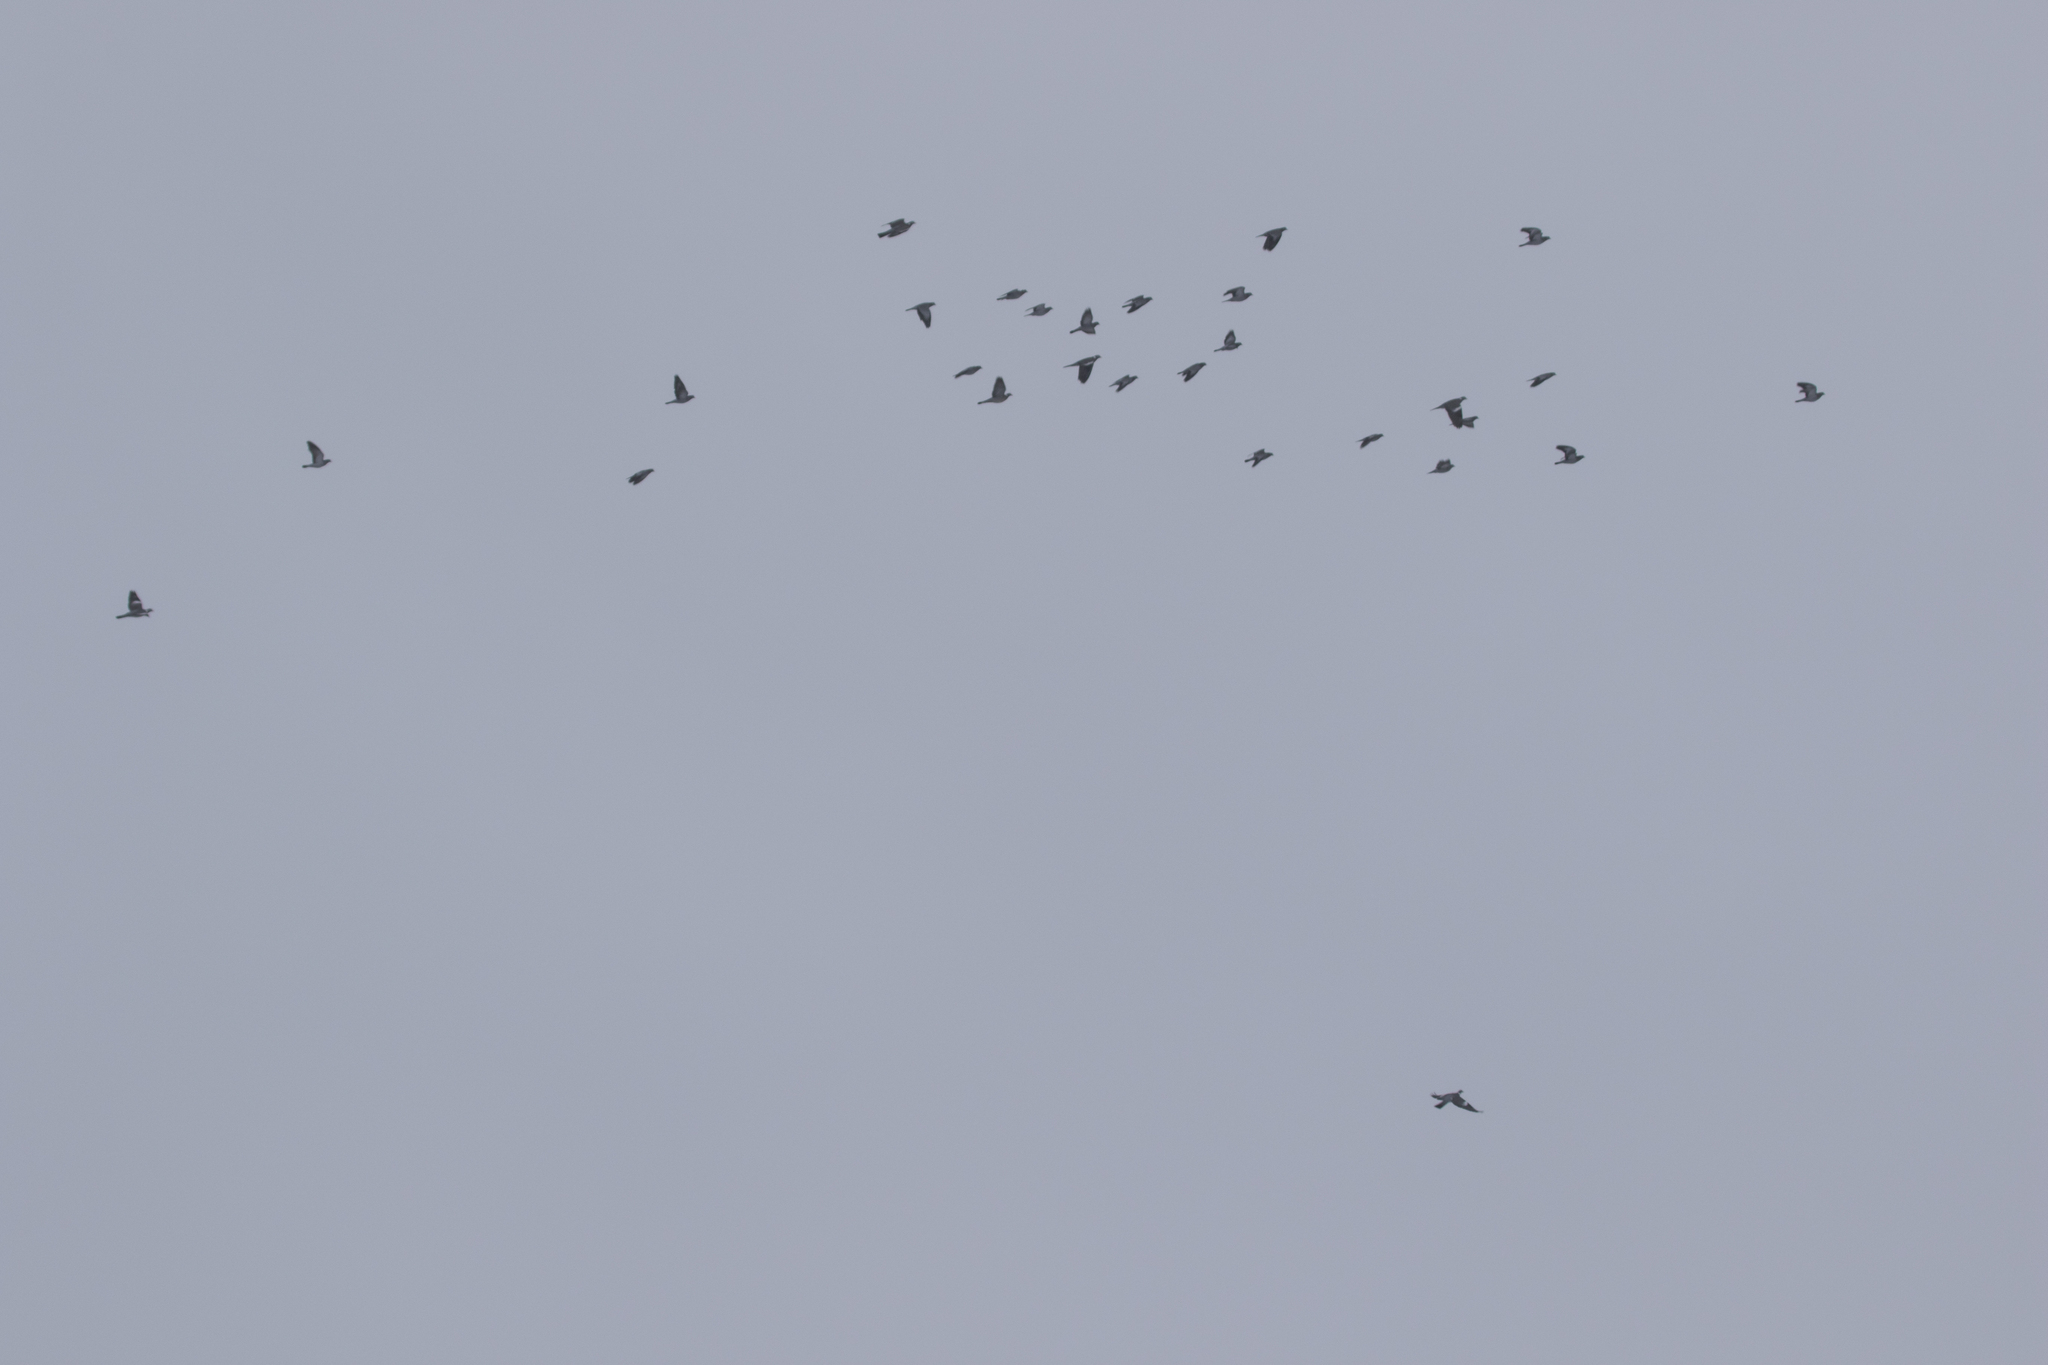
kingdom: Animalia
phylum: Chordata
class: Aves
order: Columbiformes
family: Columbidae
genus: Columba
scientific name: Columba oenas
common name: Stock dove
